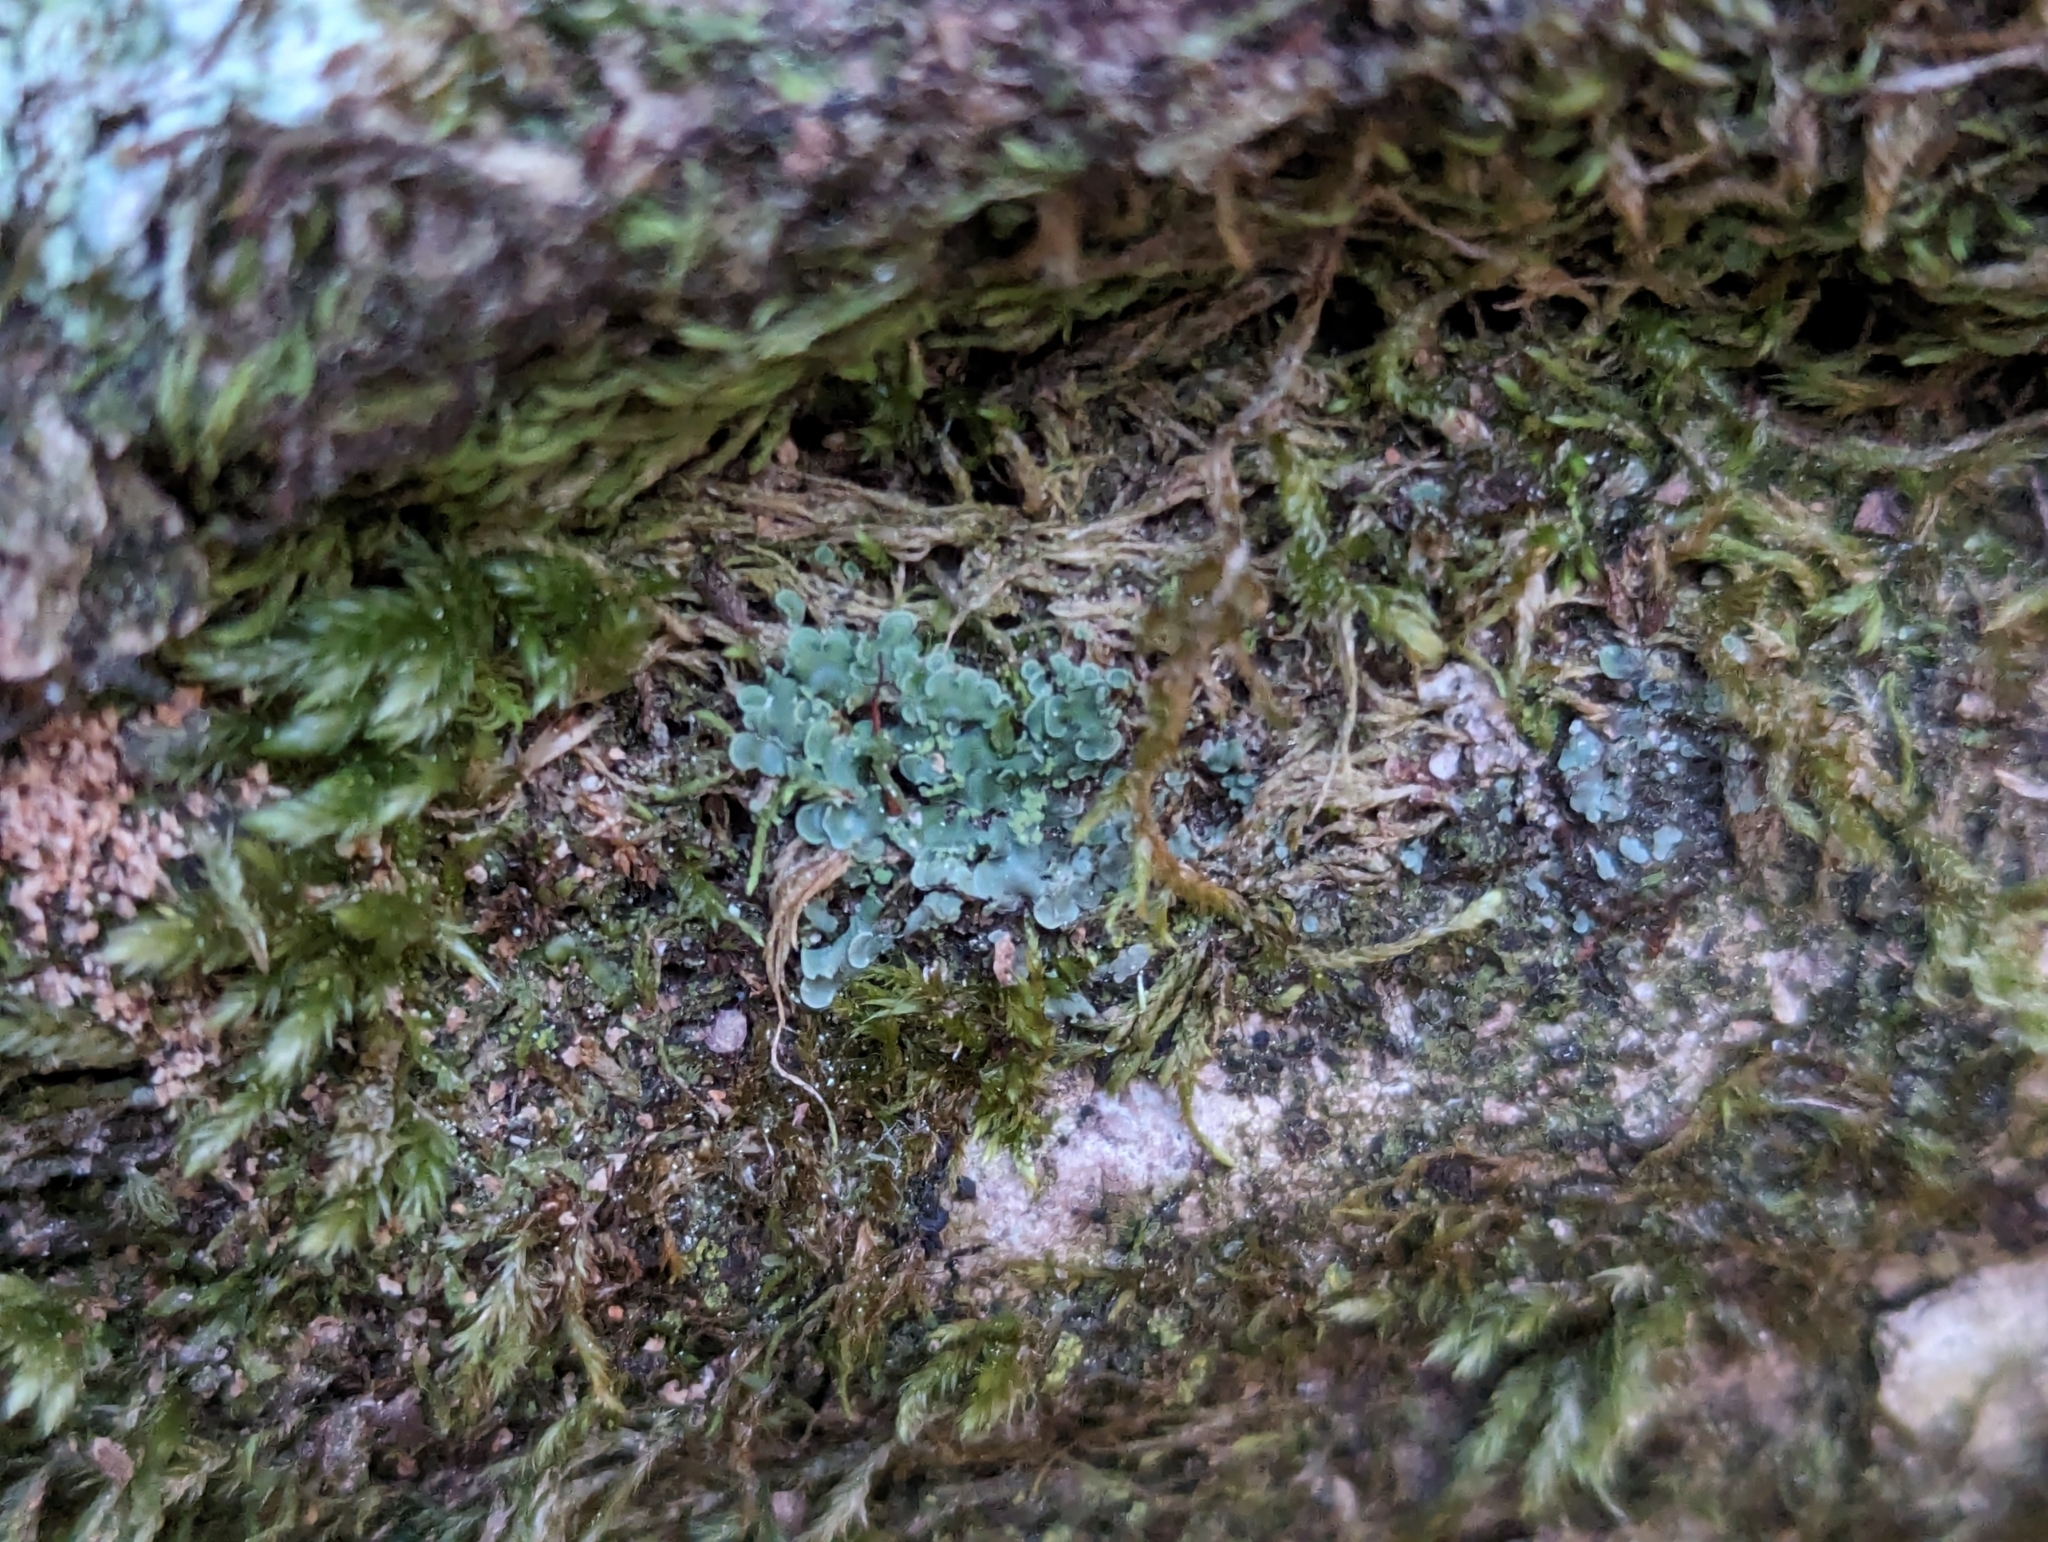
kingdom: Fungi
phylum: Ascomycota
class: Eurotiomycetes
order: Verrucariales
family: Verrucariaceae
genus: Normandina
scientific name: Normandina pulchella
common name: Elf ears lichen
